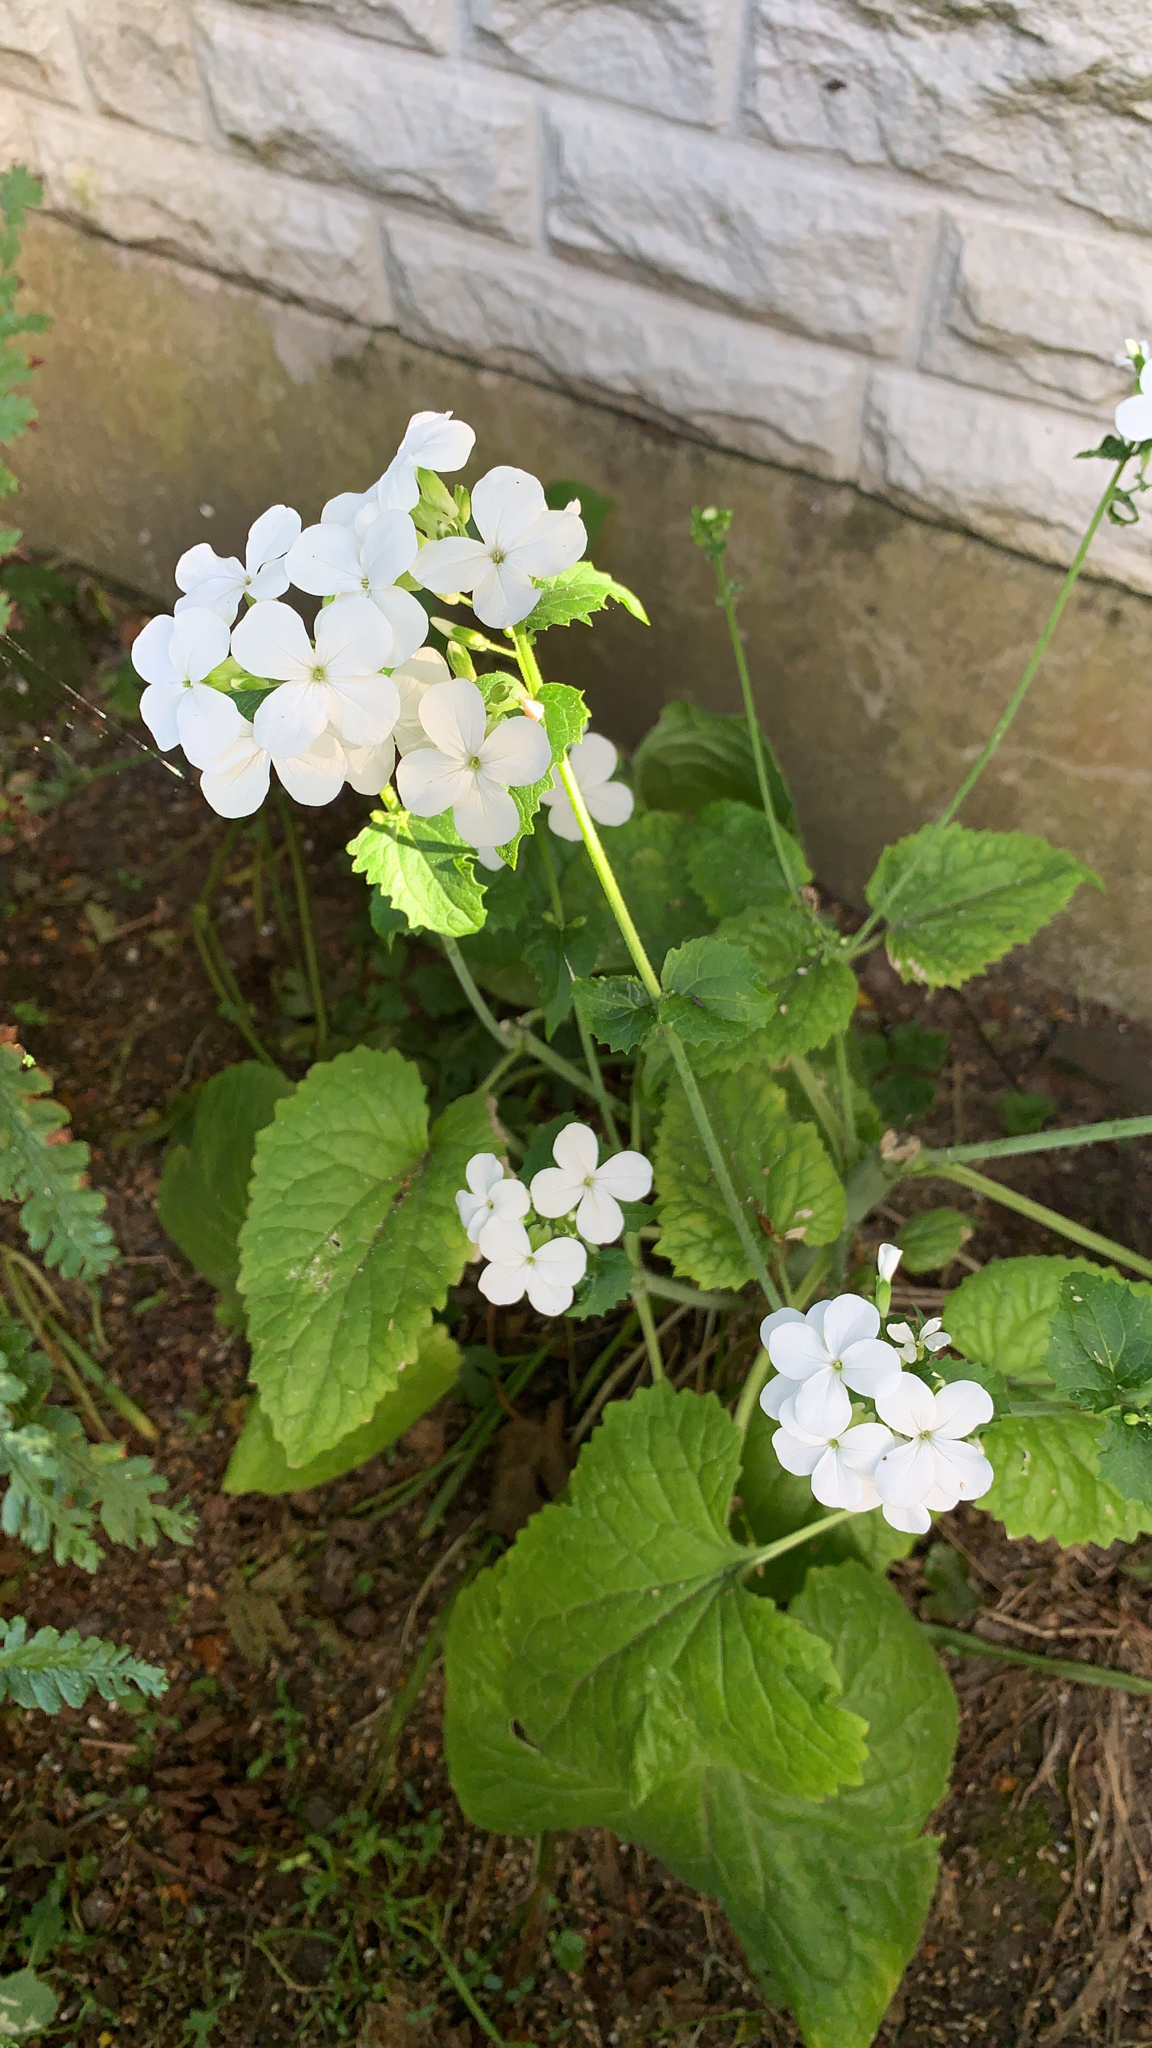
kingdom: Plantae
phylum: Tracheophyta
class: Magnoliopsida
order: Brassicales
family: Brassicaceae
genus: Lunaria
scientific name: Lunaria annua
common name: Honesty
